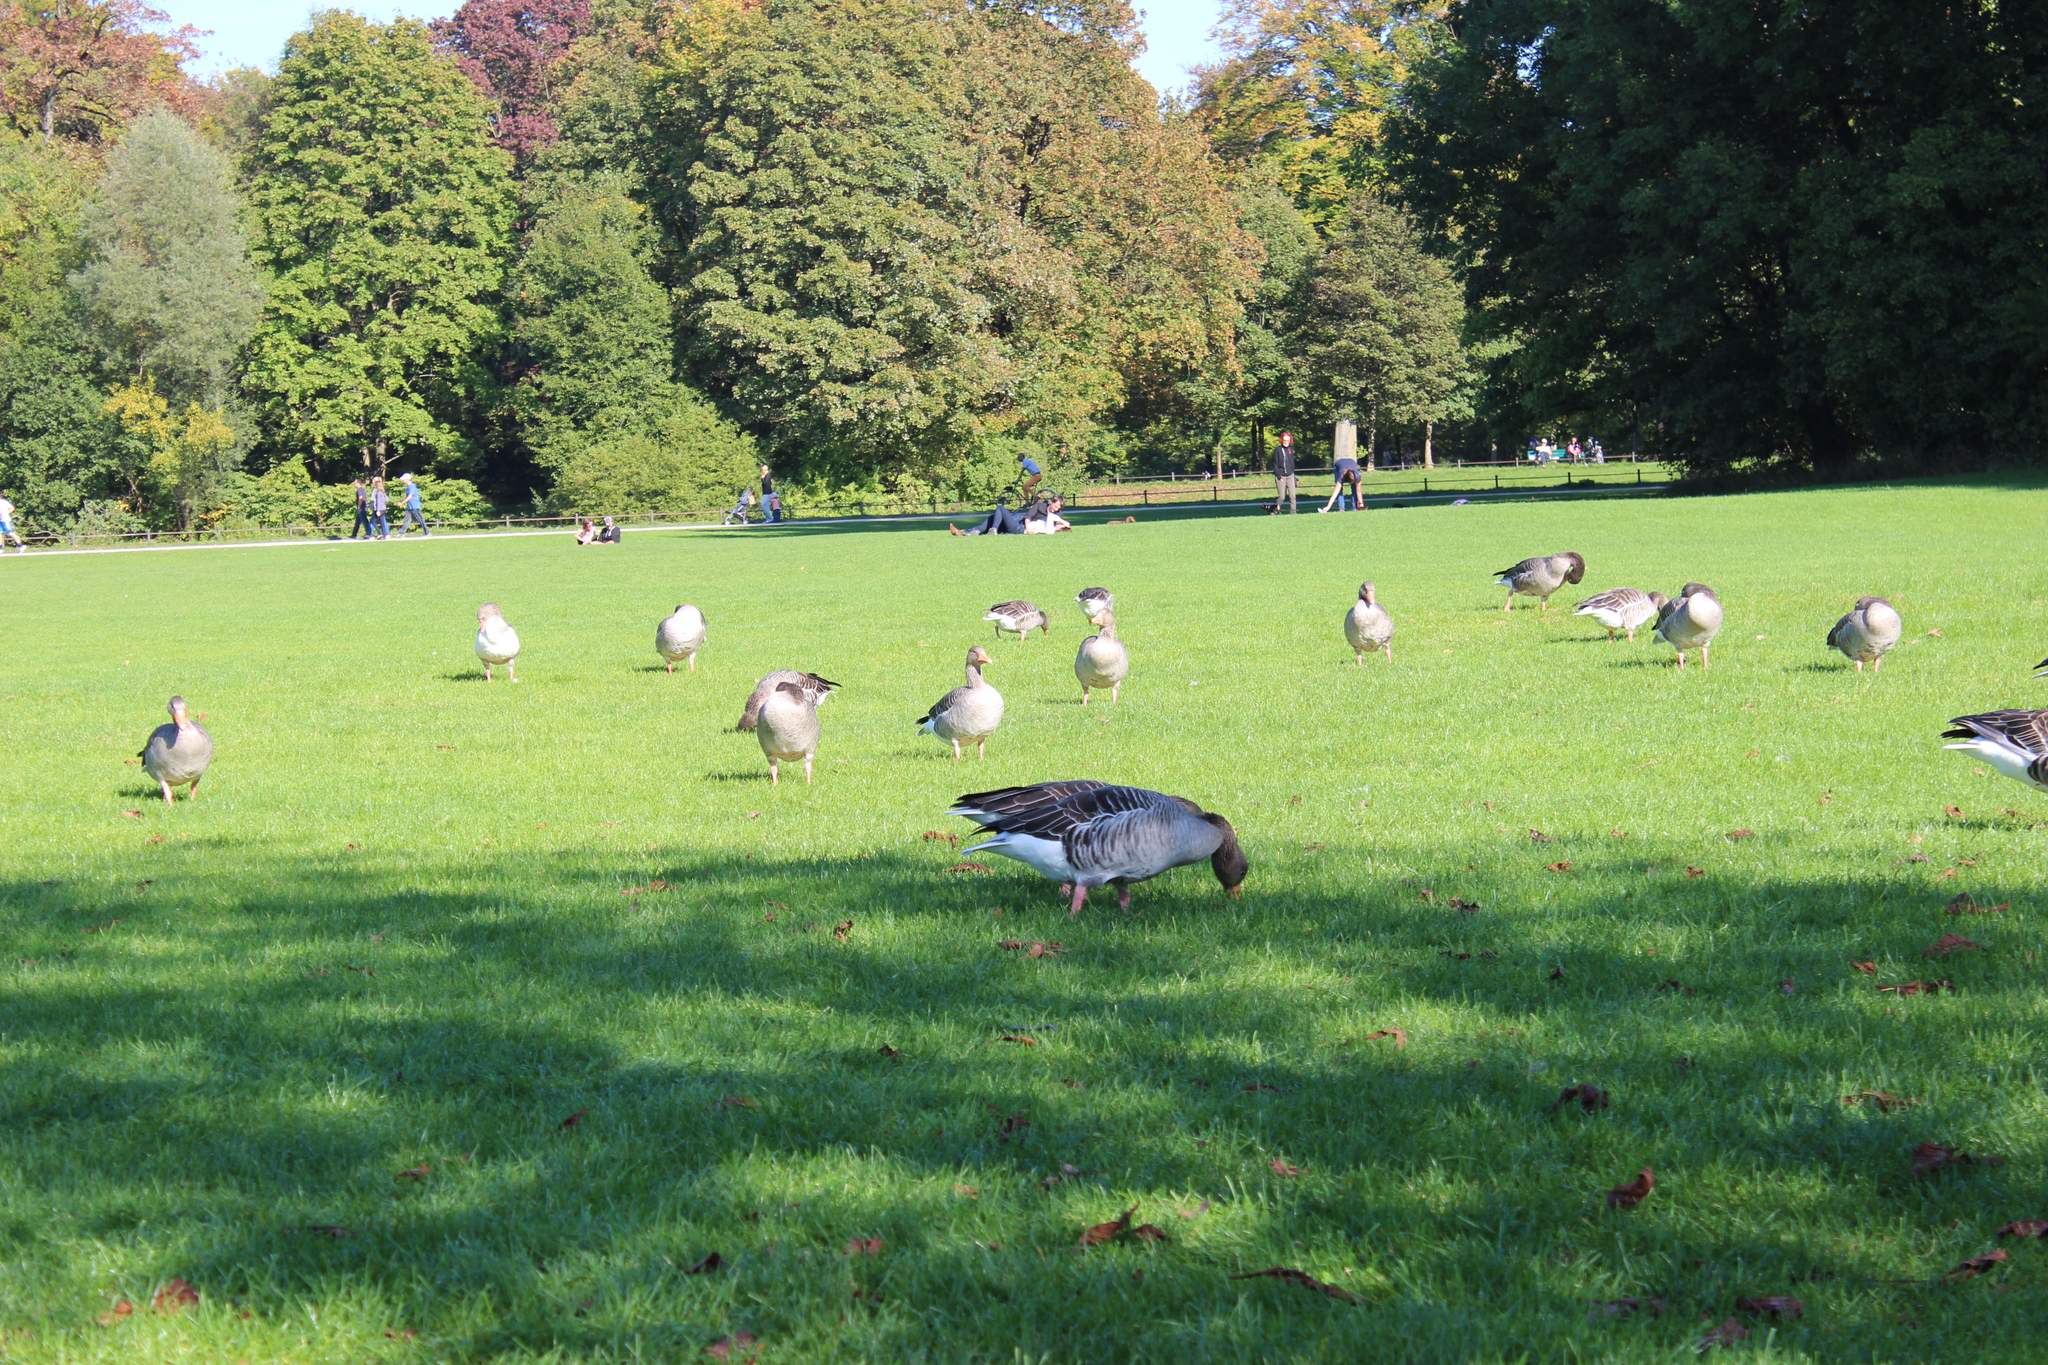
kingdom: Animalia
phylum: Chordata
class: Aves
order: Anseriformes
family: Anatidae
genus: Anser
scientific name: Anser anser
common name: Greylag goose
